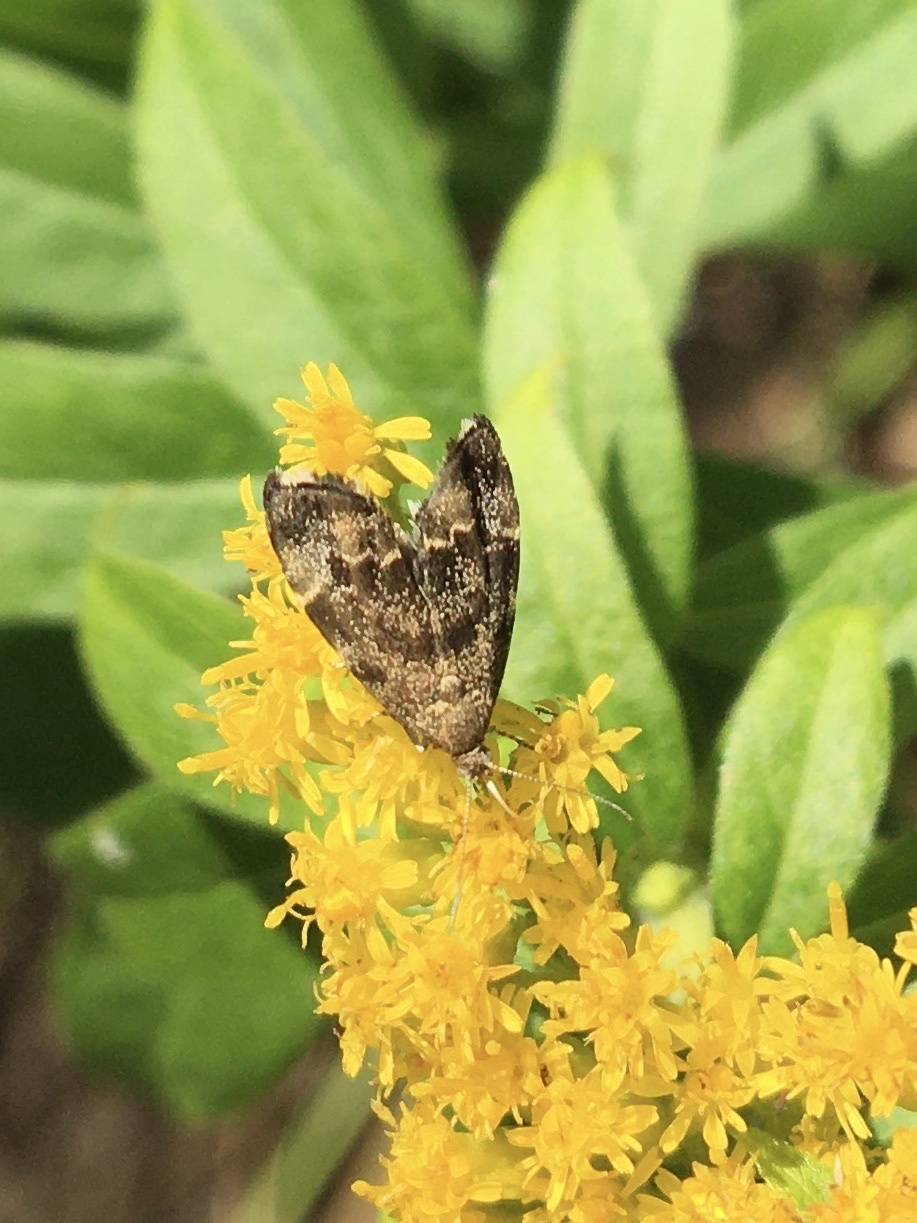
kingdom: Animalia
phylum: Arthropoda
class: Insecta
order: Lepidoptera
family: Choreutidae
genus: Anthophila
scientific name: Anthophila fabriciana
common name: Nettle-tap
